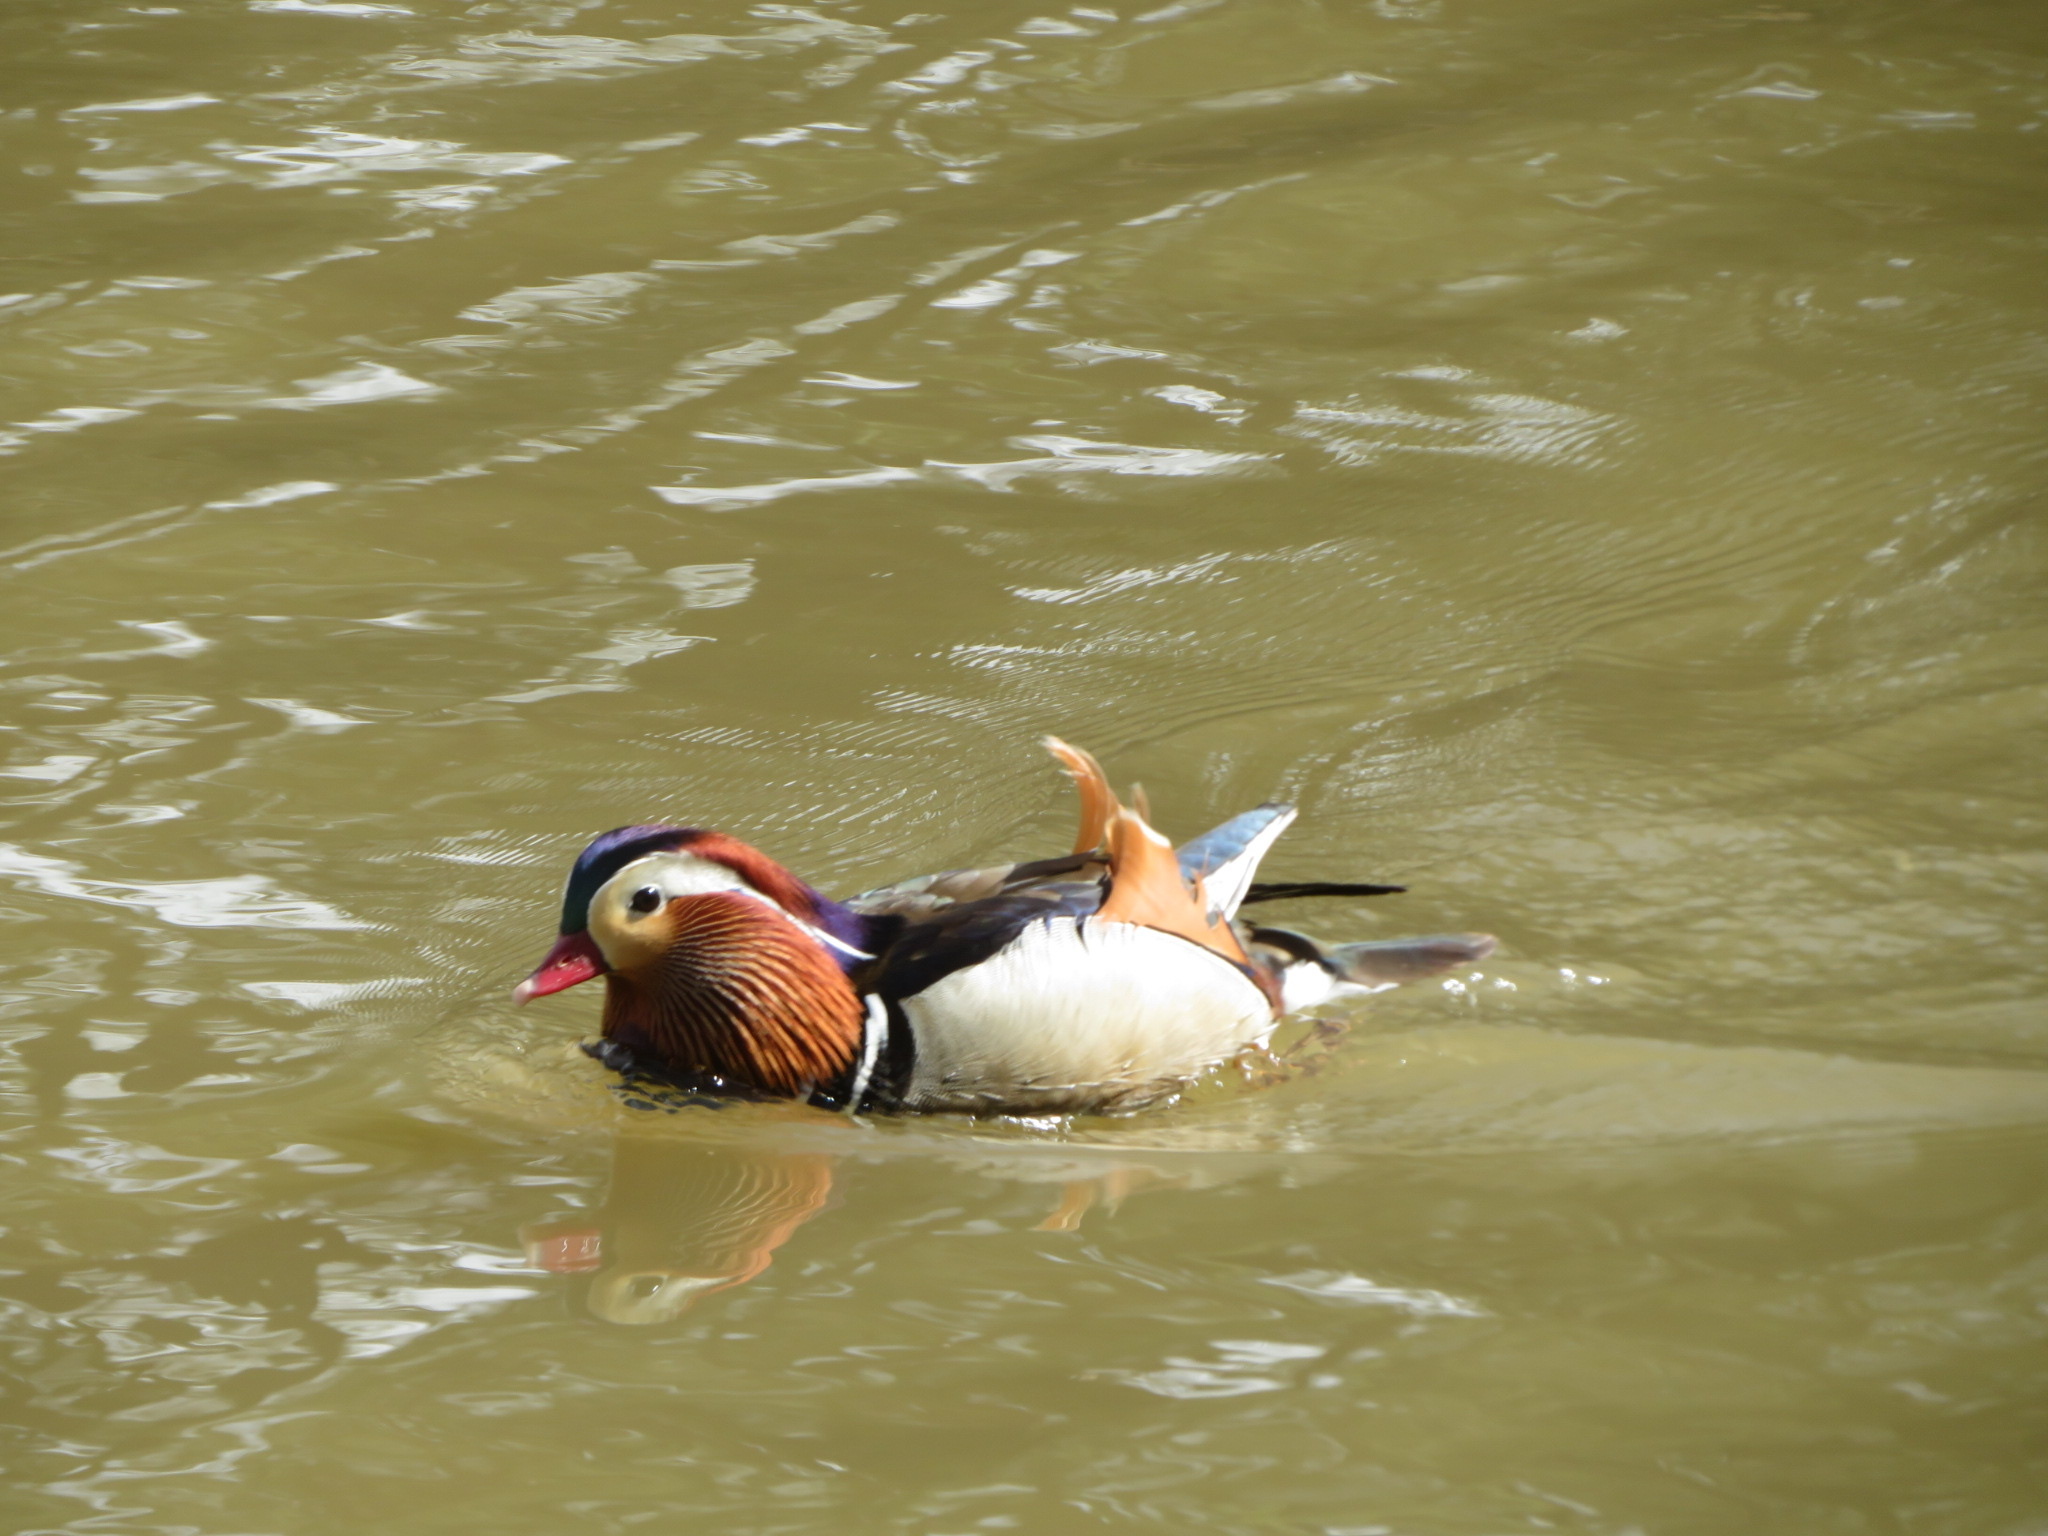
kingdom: Animalia
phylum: Chordata
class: Aves
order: Anseriformes
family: Anatidae
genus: Aix
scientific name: Aix galericulata
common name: Mandarin duck
